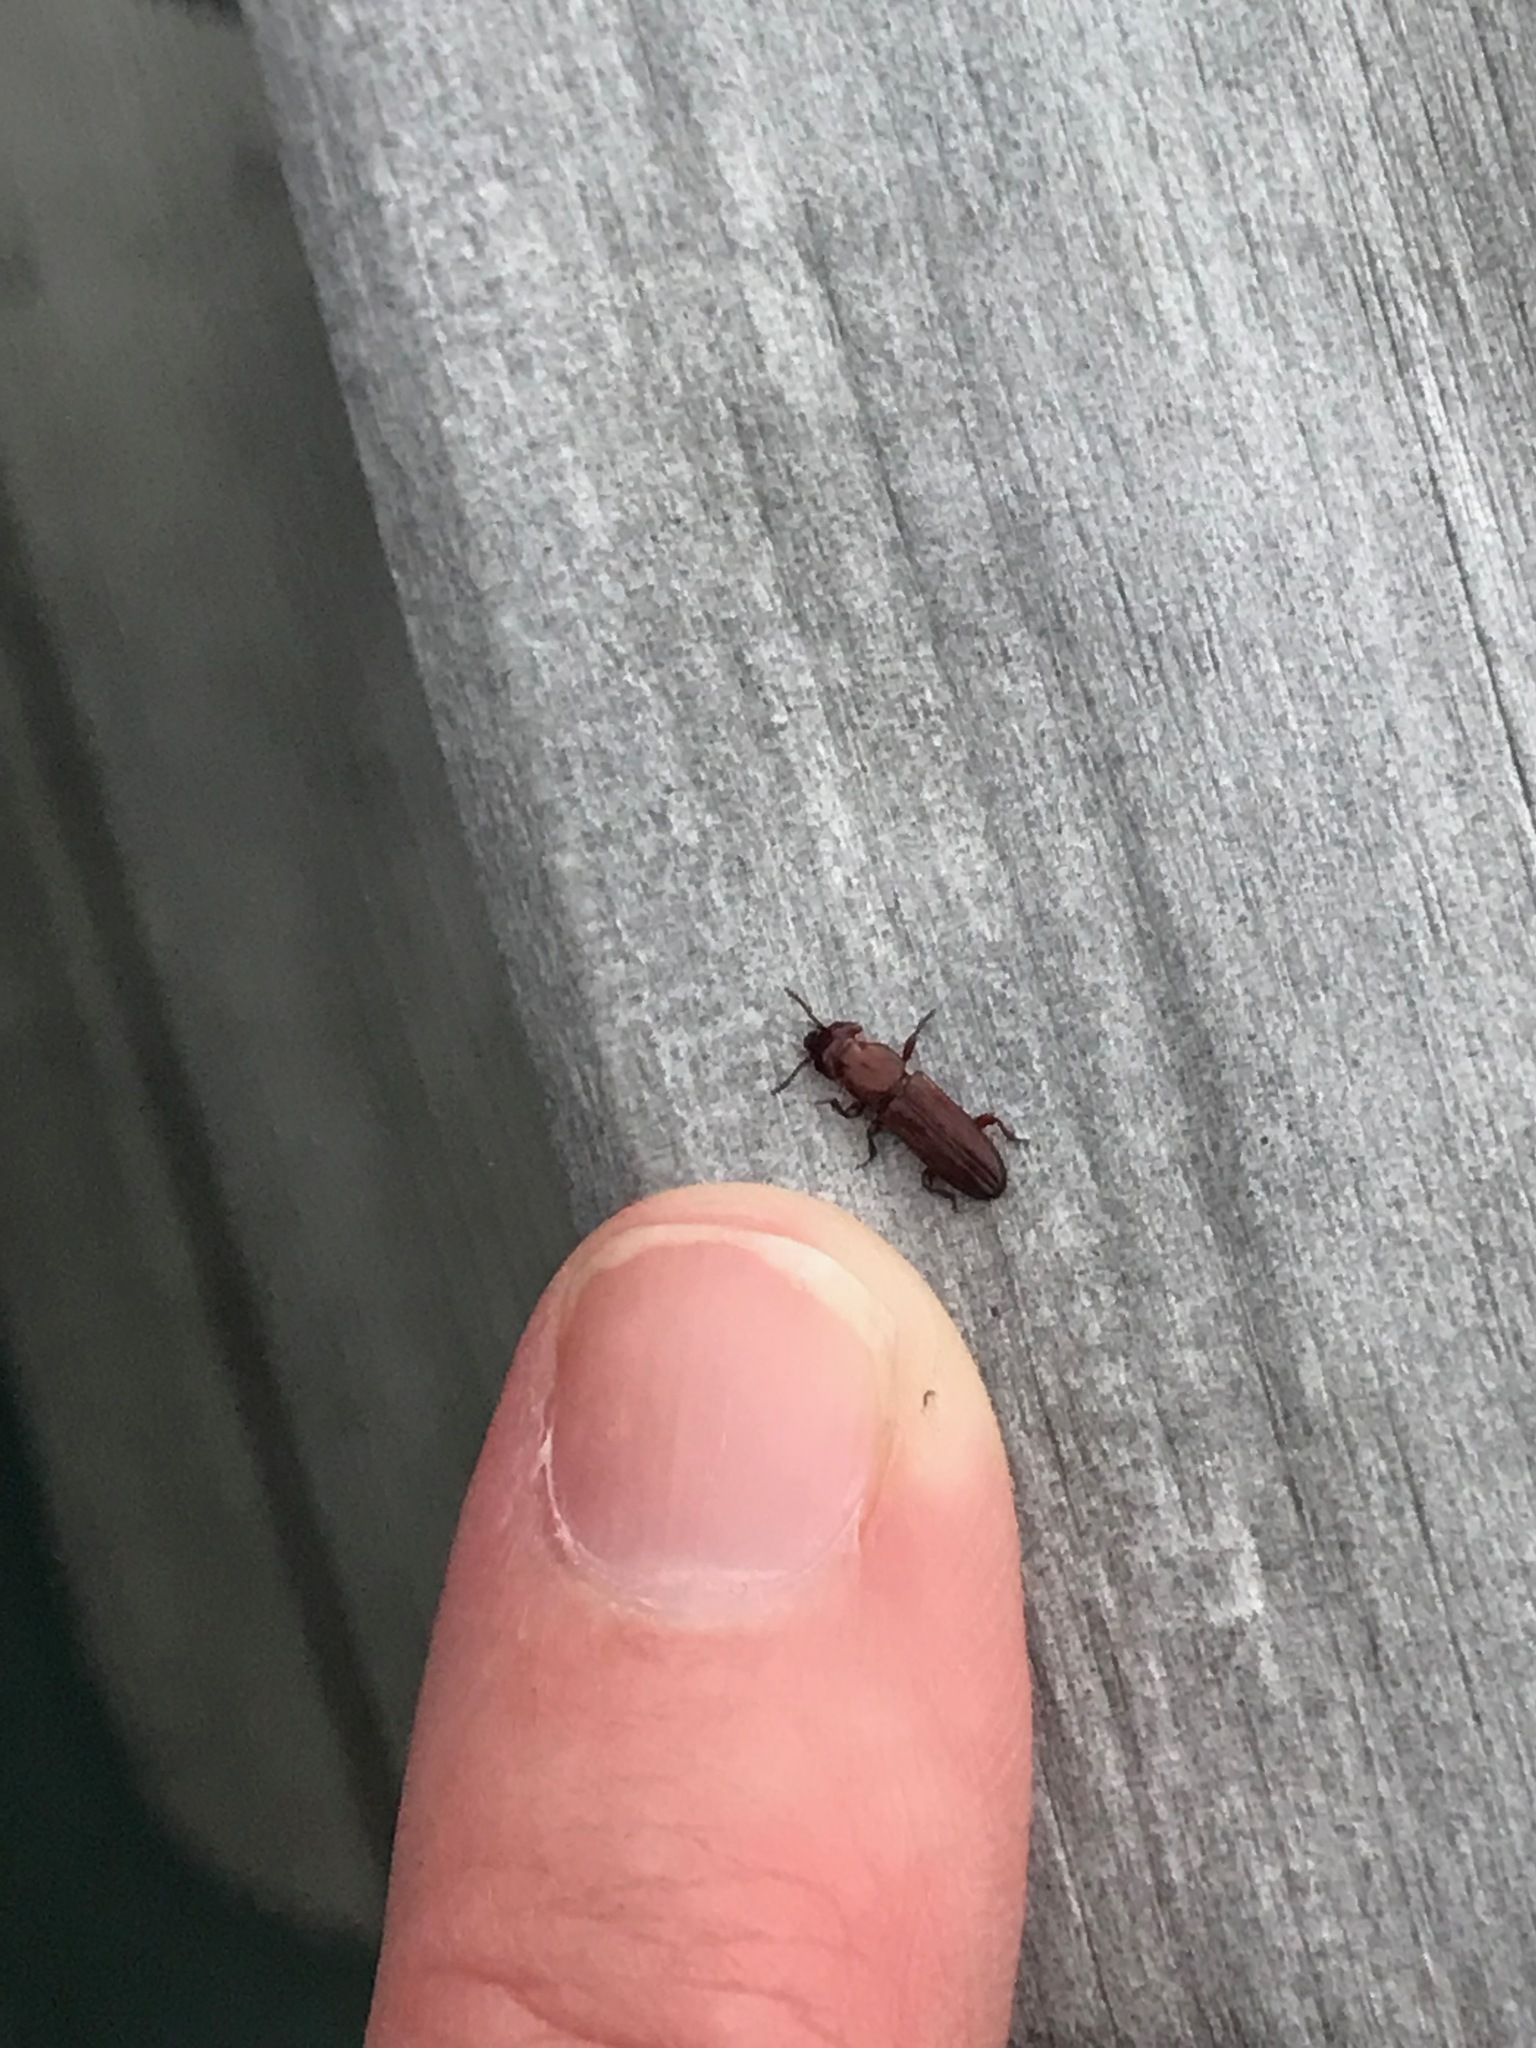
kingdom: Animalia
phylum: Arthropoda
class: Insecta
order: Coleoptera
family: Prostomidae
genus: Dryocora
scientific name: Dryocora
